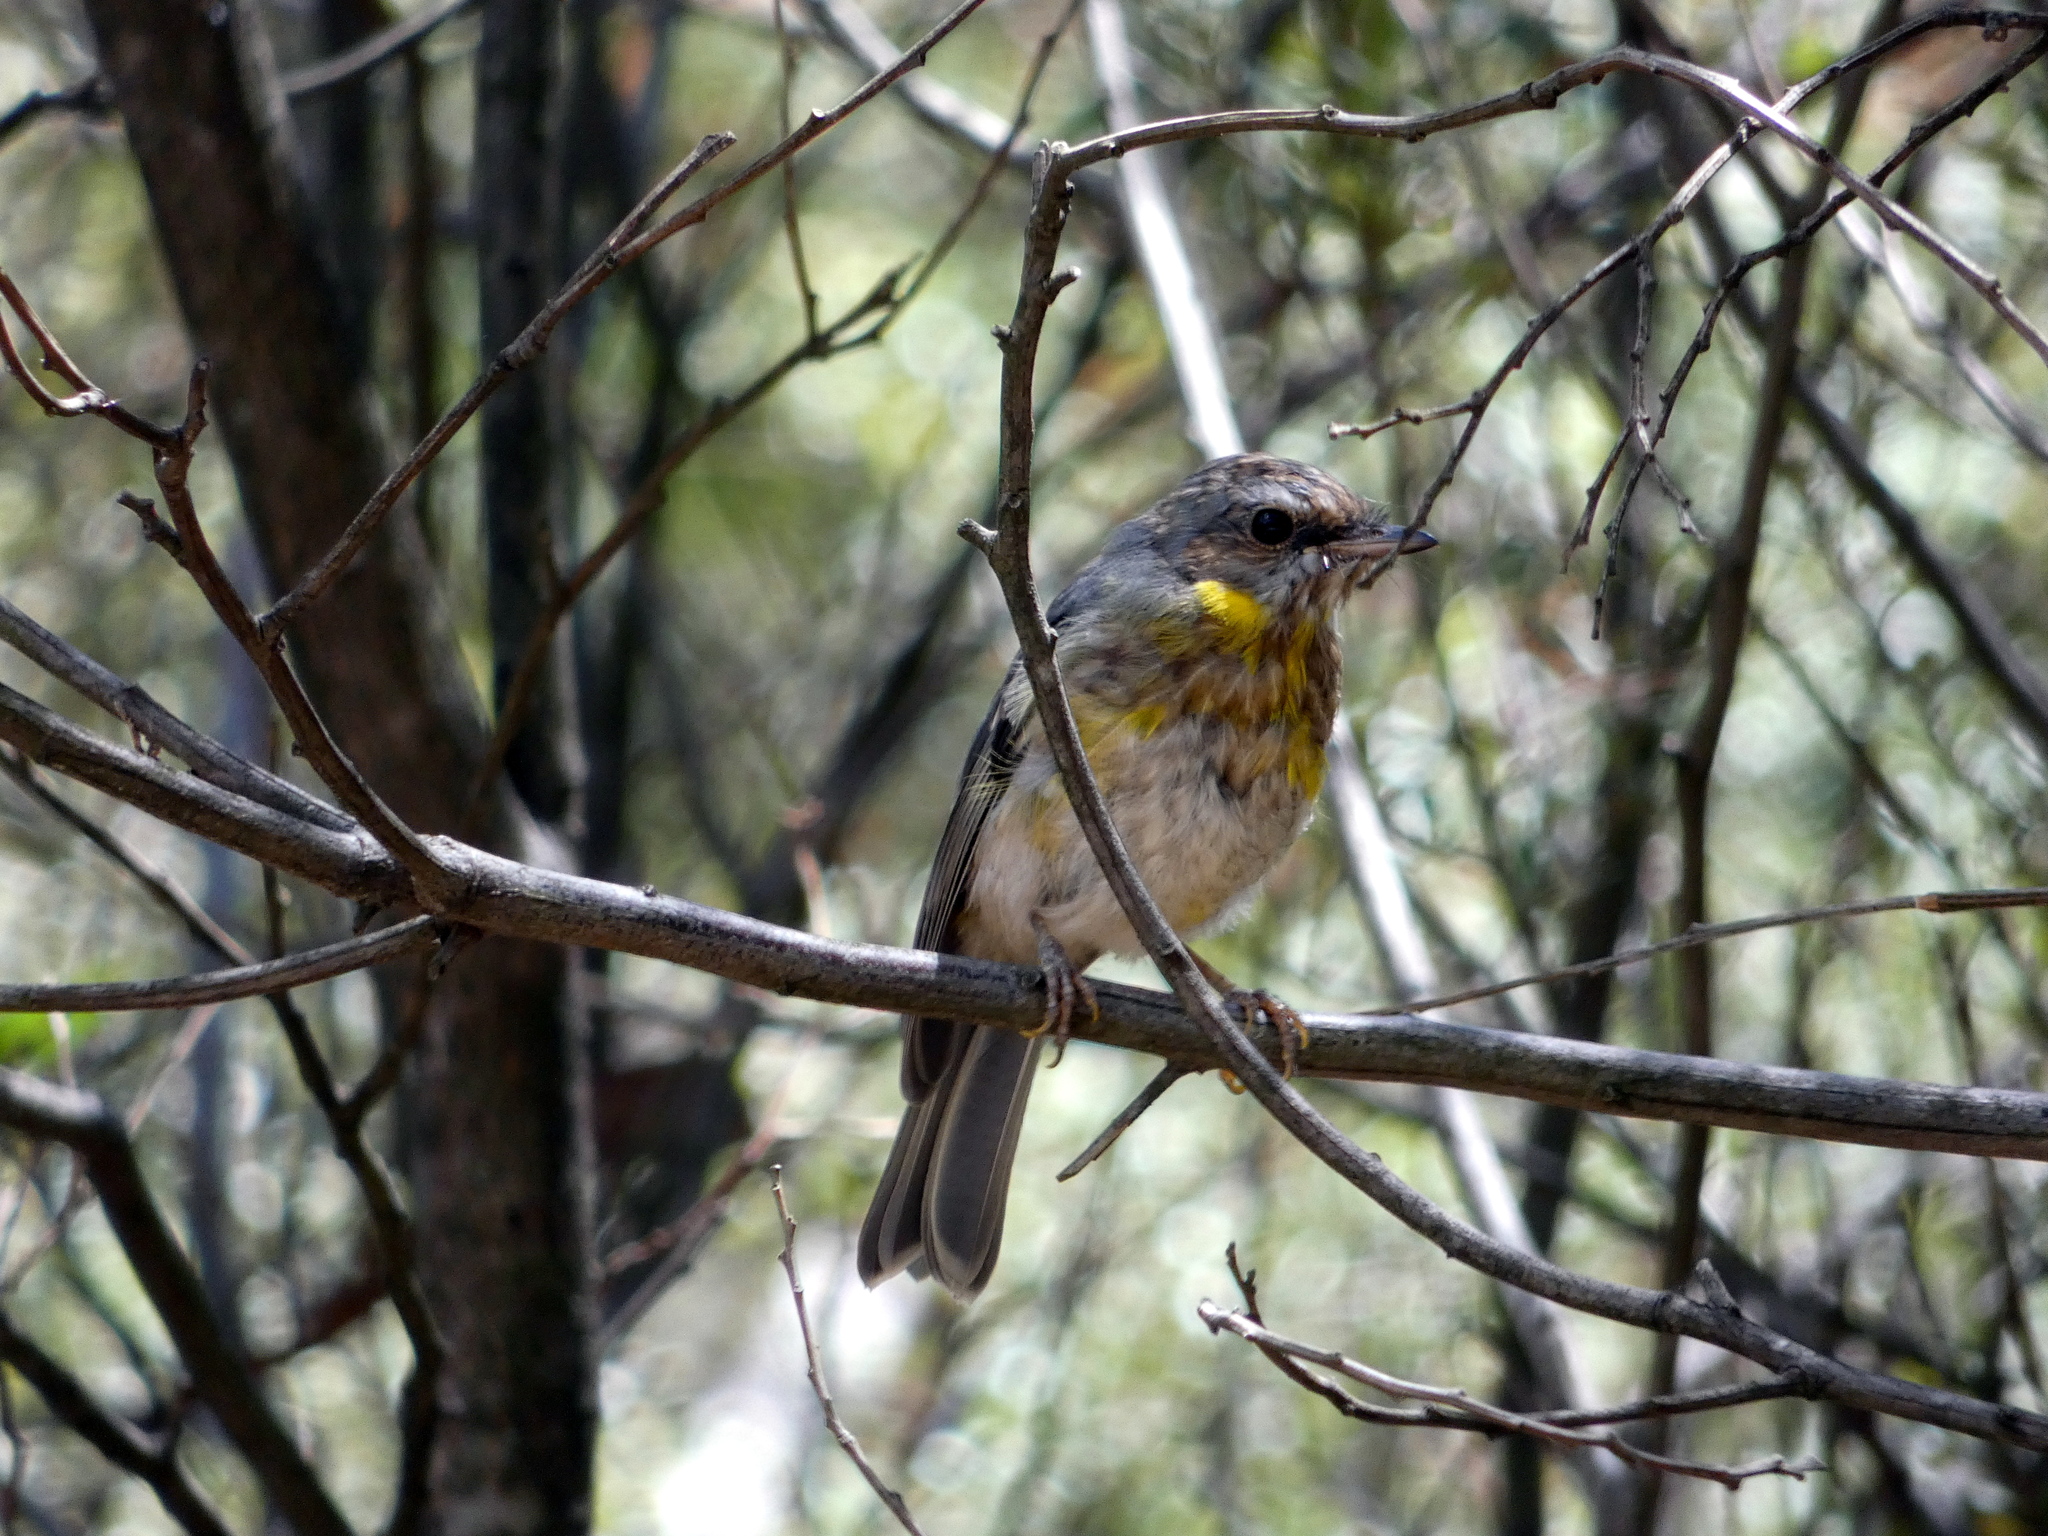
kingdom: Animalia
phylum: Chordata
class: Aves
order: Passeriformes
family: Petroicidae
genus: Eopsaltria
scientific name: Eopsaltria australis
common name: Eastern yellow robin
